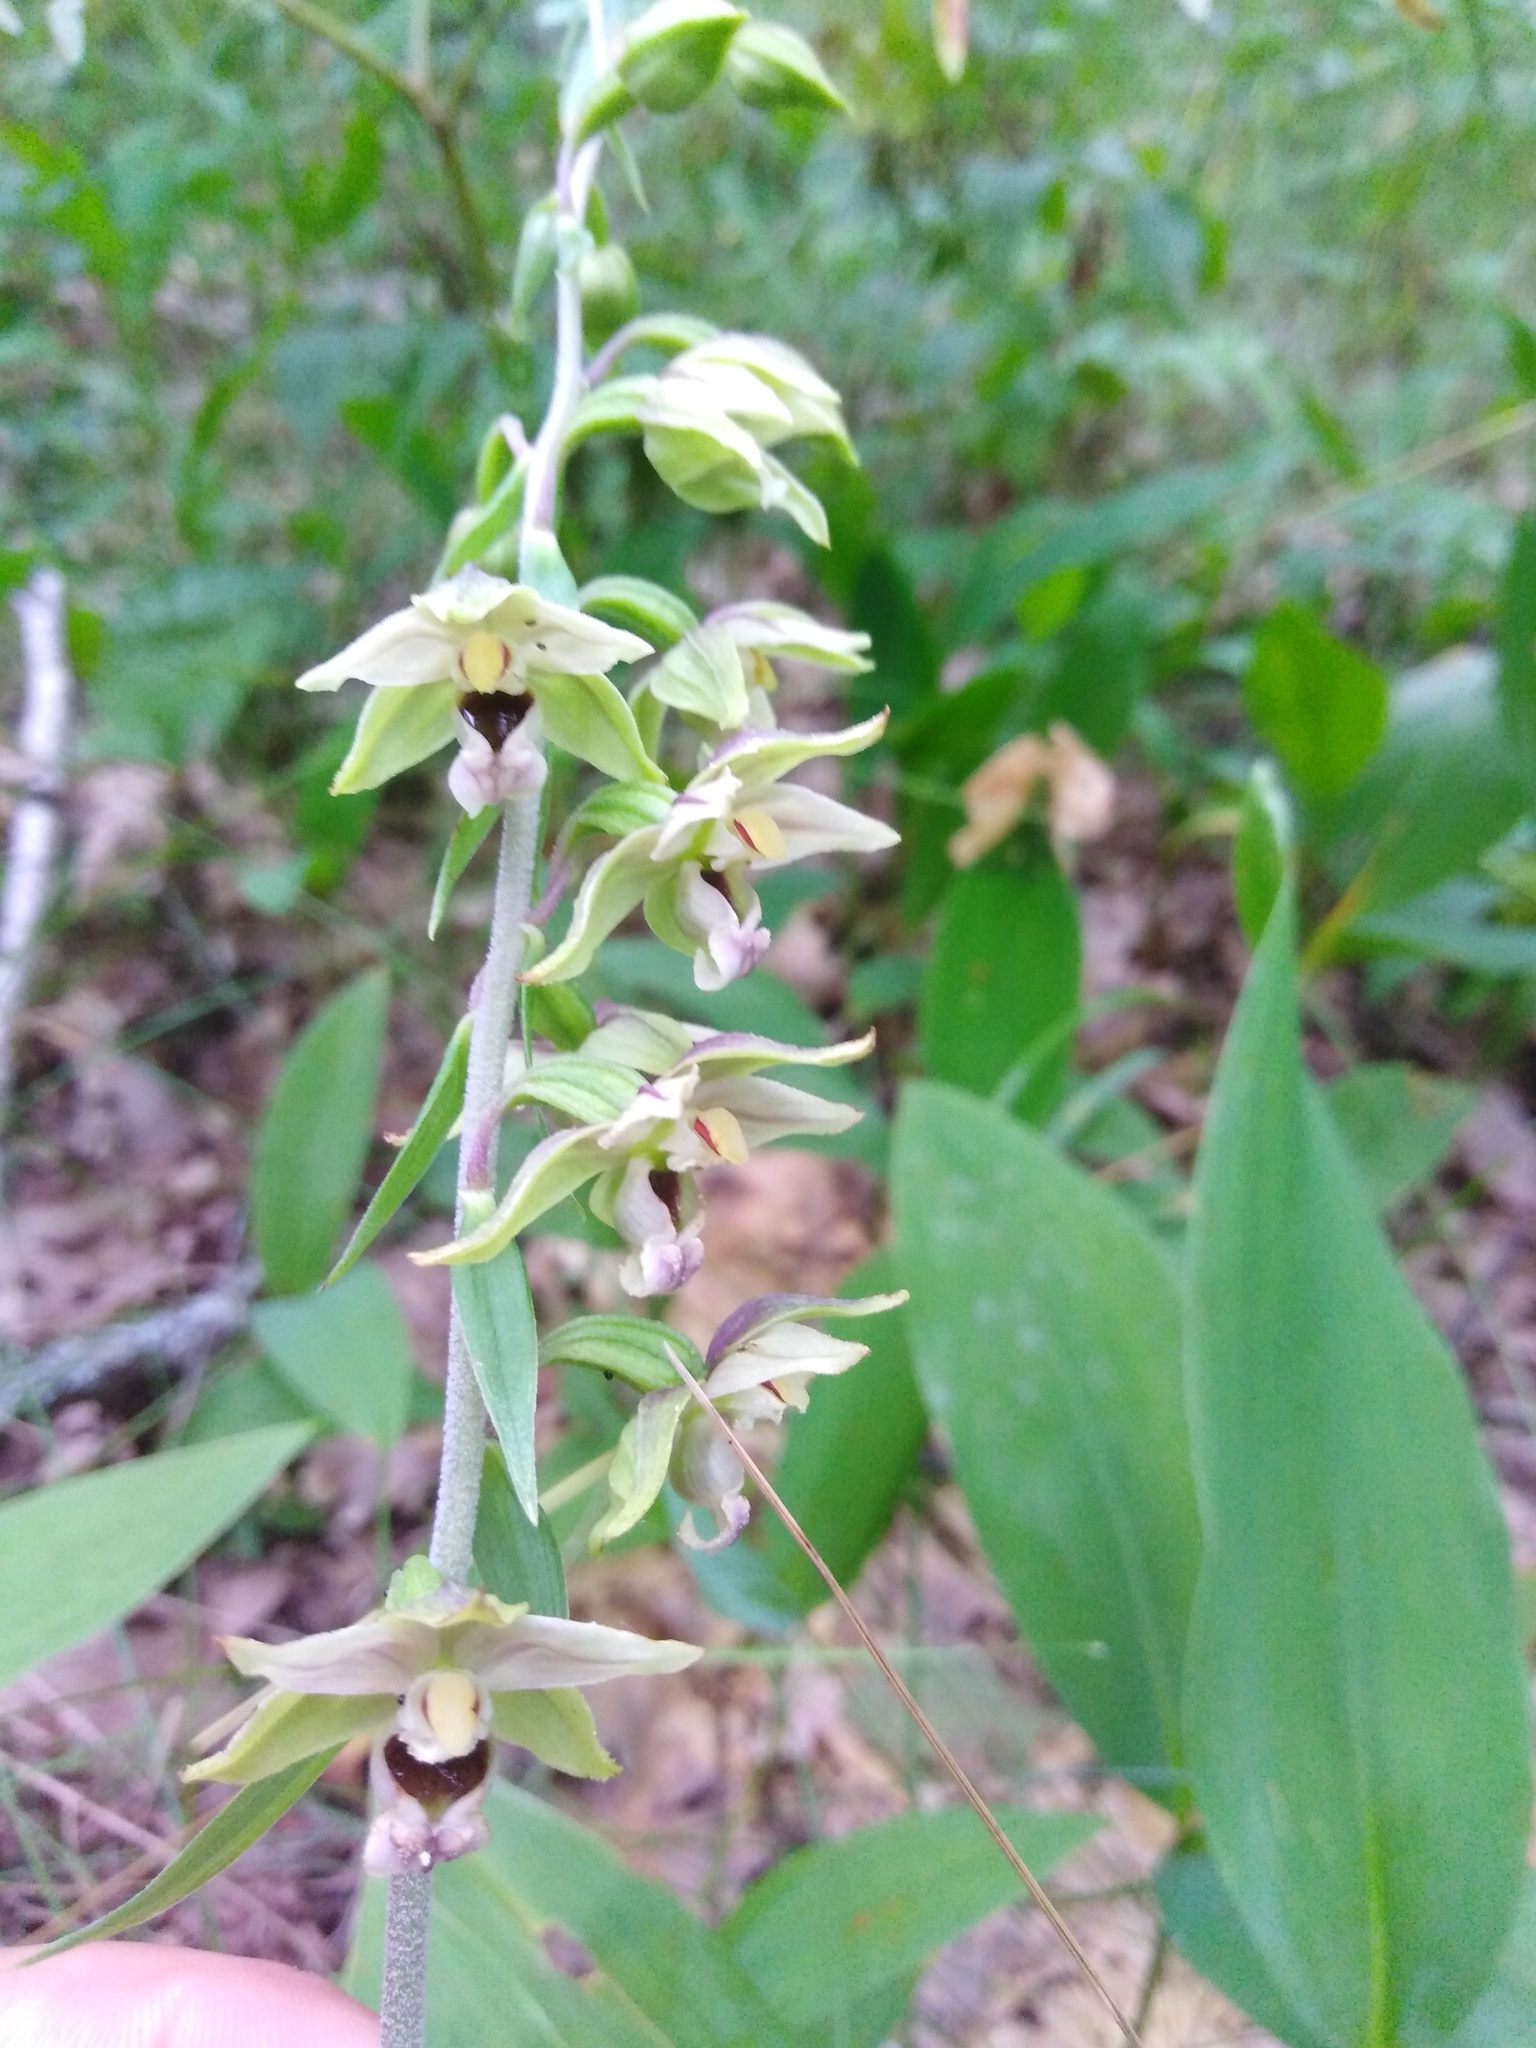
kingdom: Plantae
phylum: Tracheophyta
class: Liliopsida
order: Asparagales
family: Orchidaceae
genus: Epipactis
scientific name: Epipactis helleborine
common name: Broad-leaved helleborine
